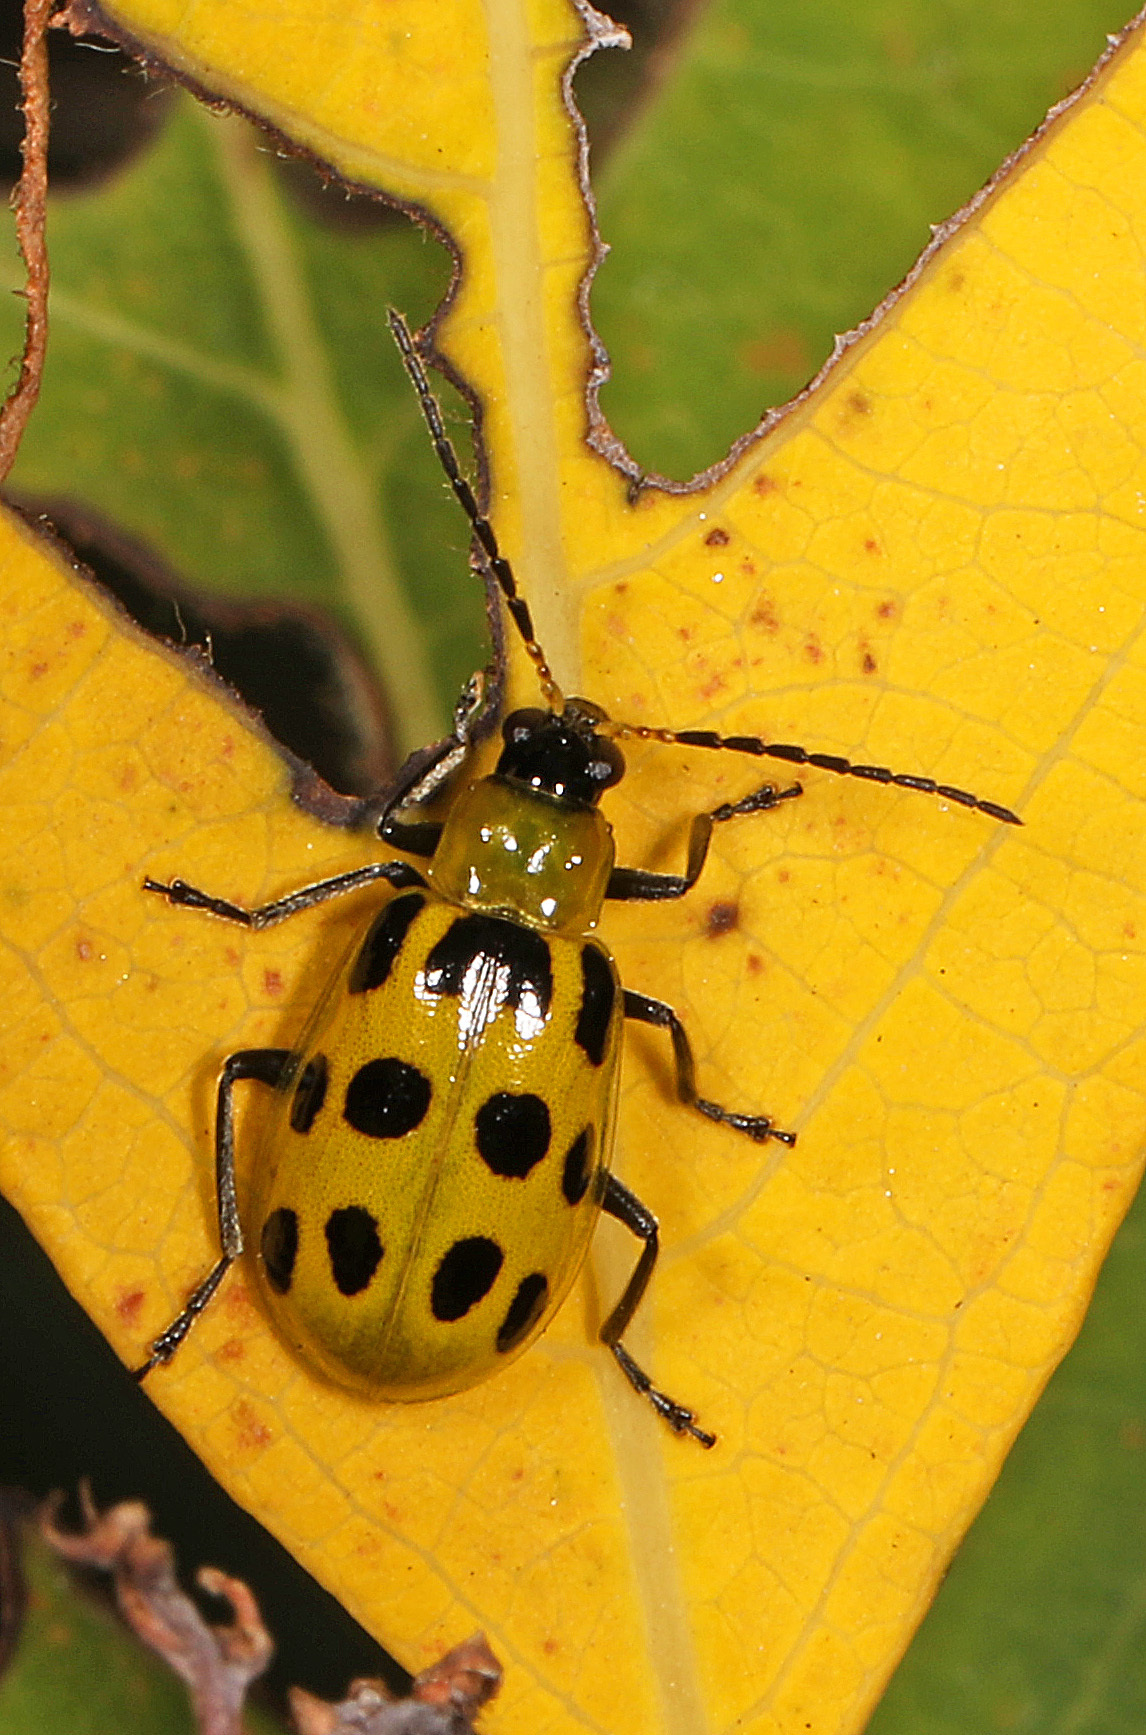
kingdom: Animalia
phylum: Arthropoda
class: Insecta
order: Coleoptera
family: Chrysomelidae
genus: Diabrotica
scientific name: Diabrotica undecimpunctata
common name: Spotted cucumber beetle
